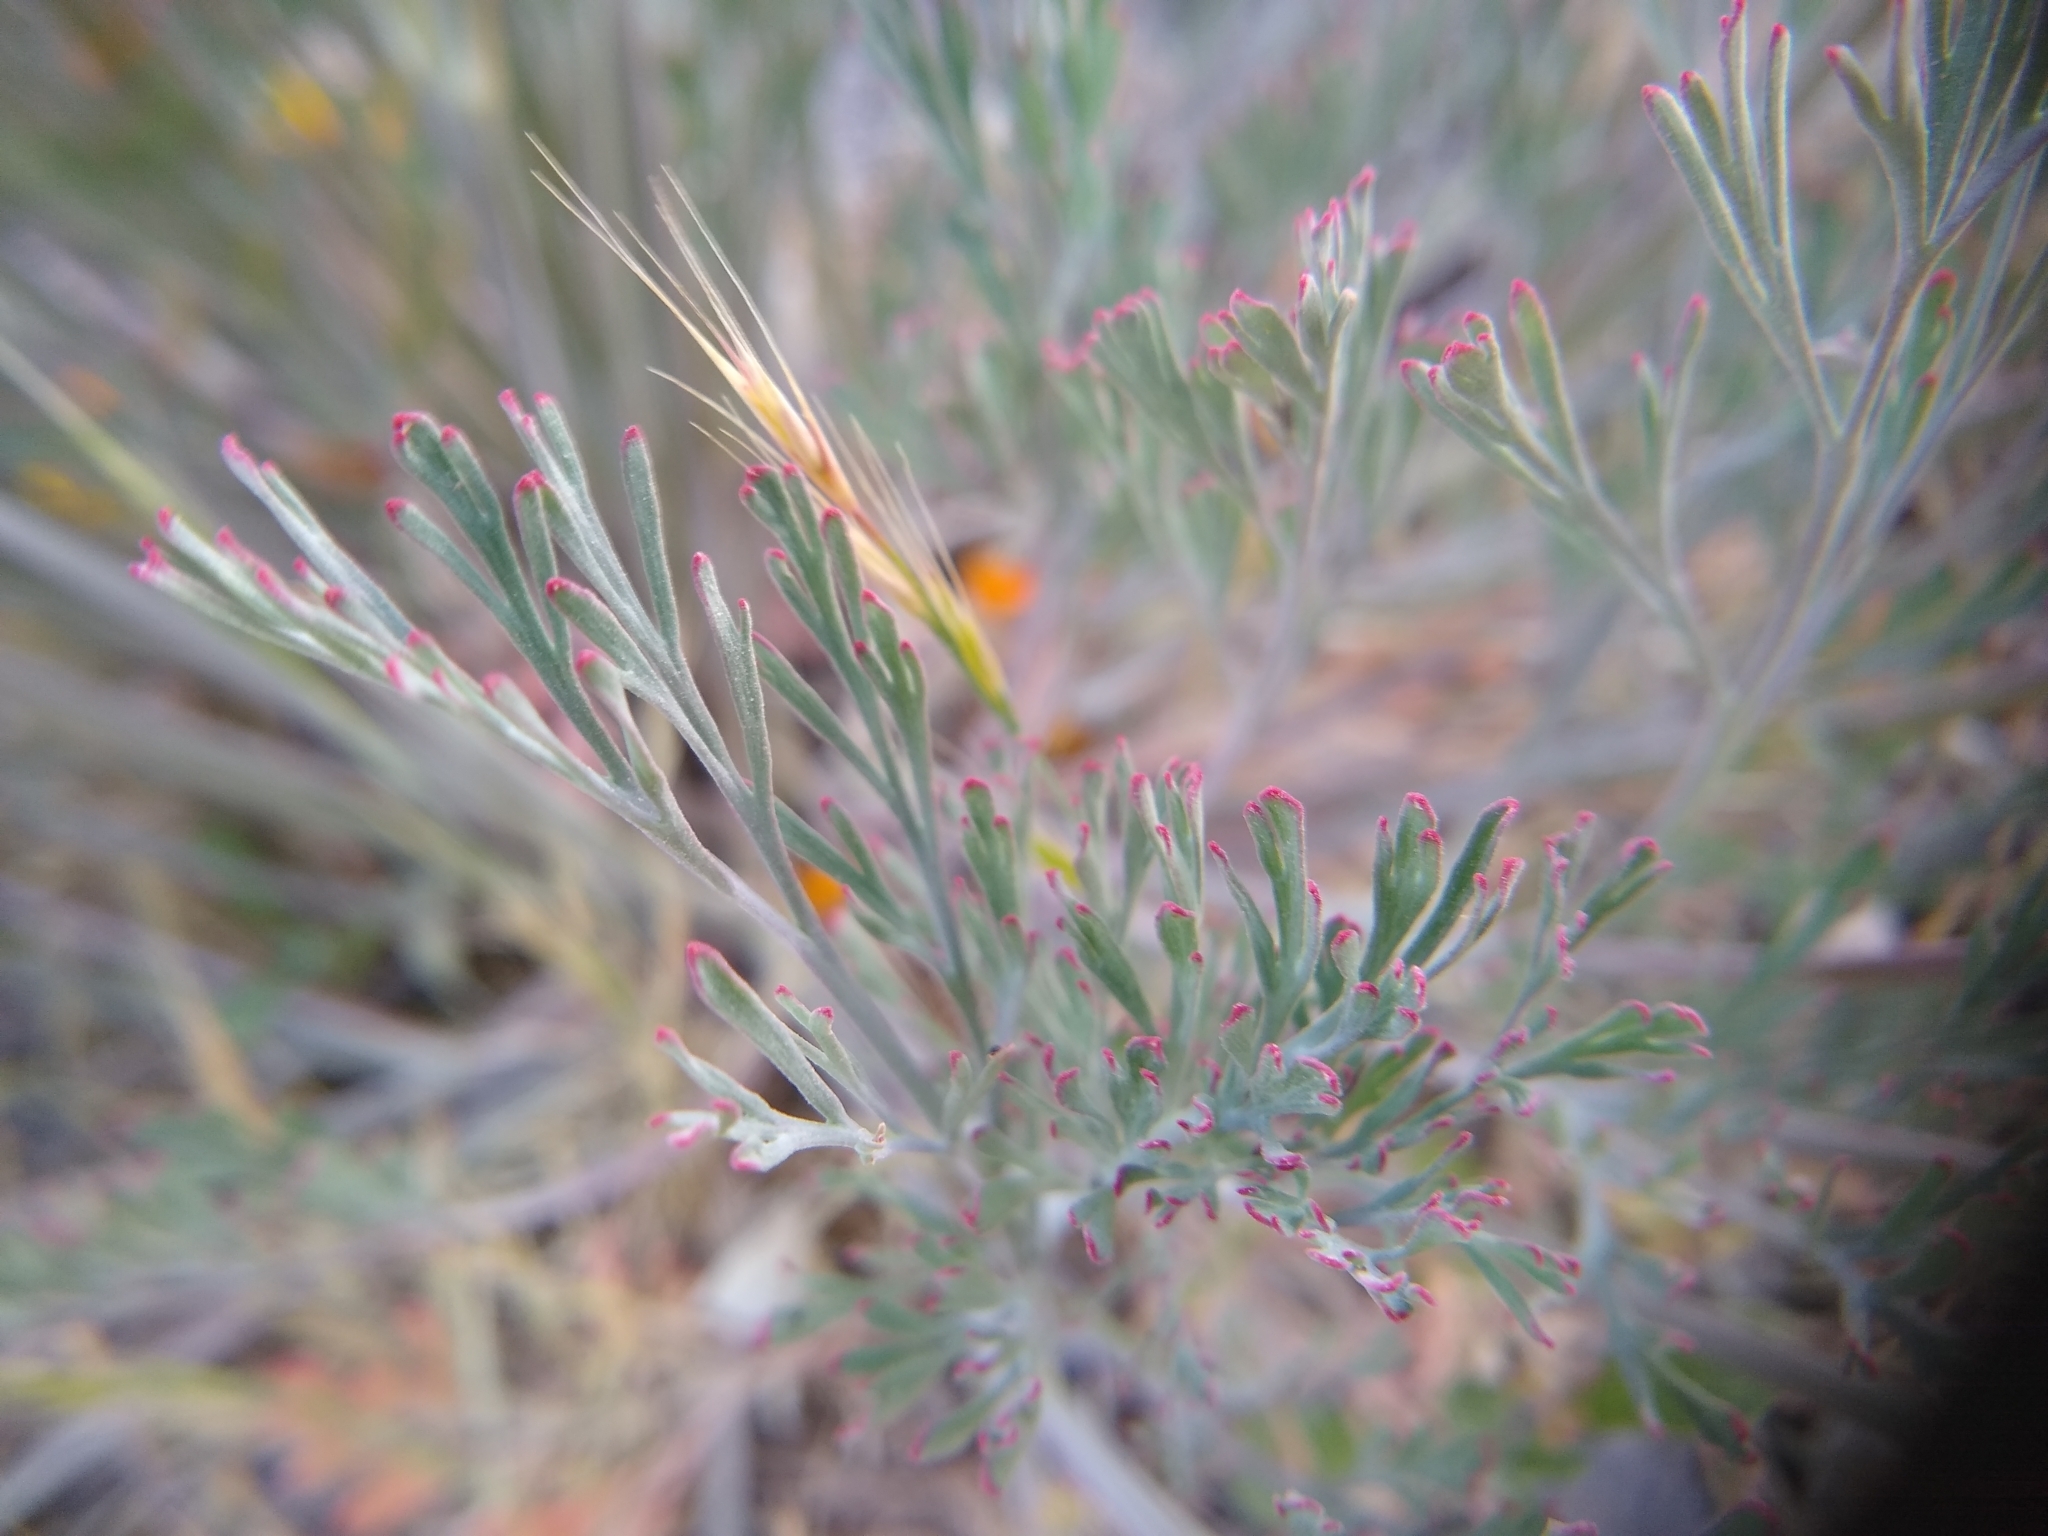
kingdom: Plantae
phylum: Tracheophyta
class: Magnoliopsida
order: Ranunculales
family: Papaveraceae
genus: Eschscholzia
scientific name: Eschscholzia californica
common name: California poppy
